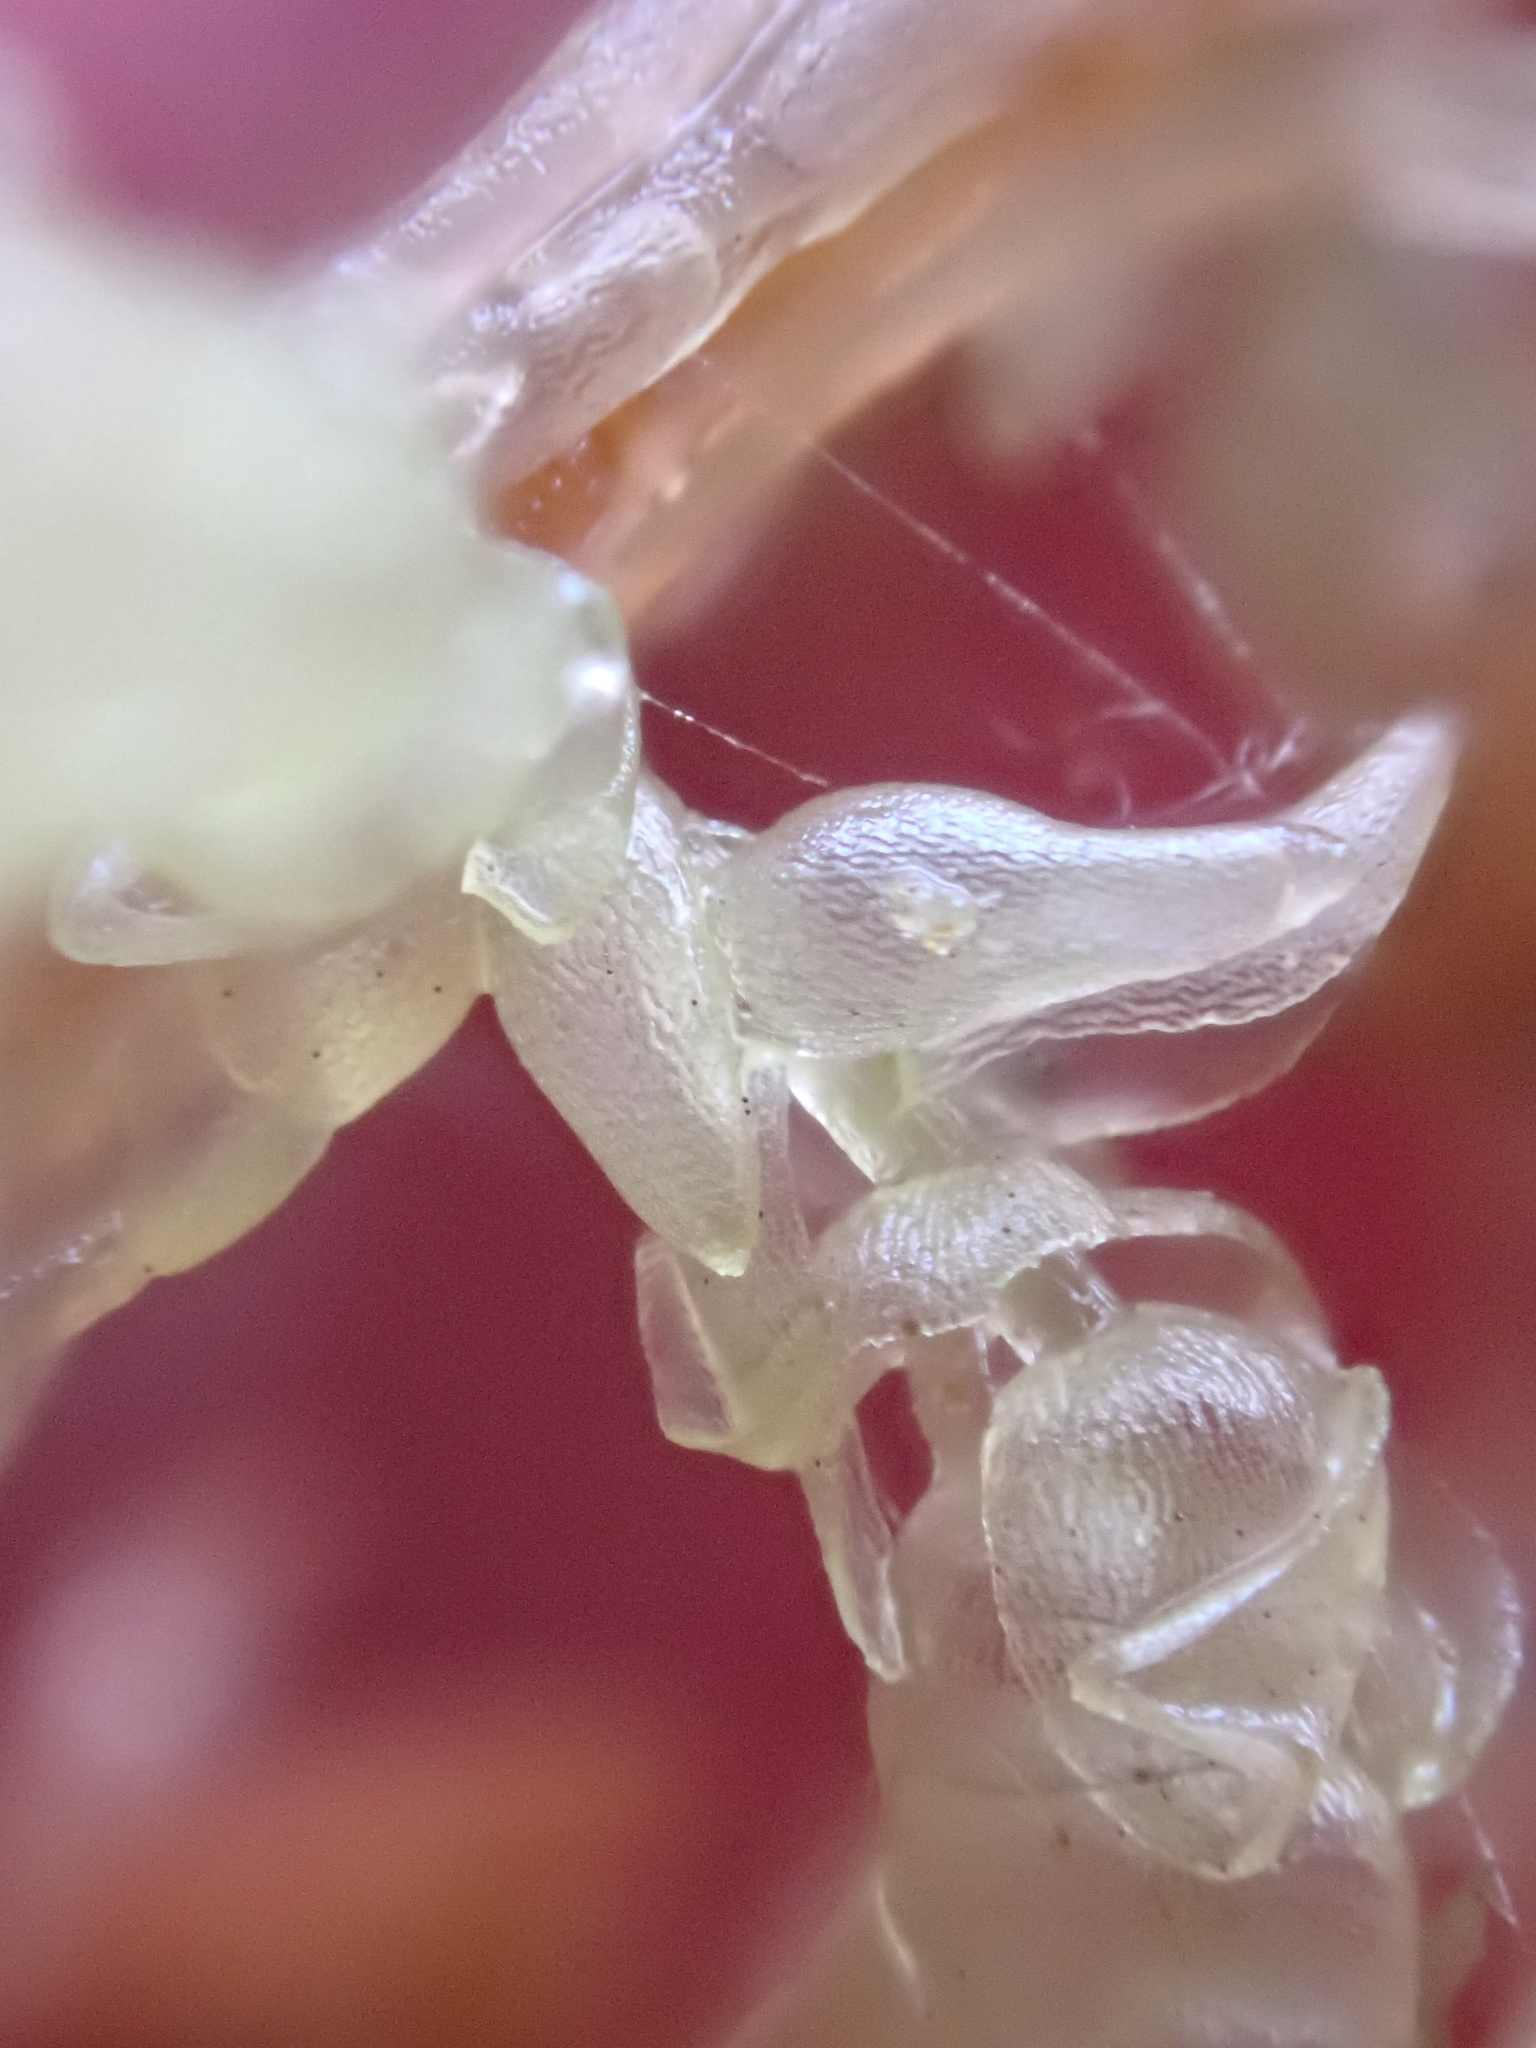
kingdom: Plantae
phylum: Bryophyta
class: Sphagnopsida
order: Sphagnales
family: Sphagnaceae
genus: Sphagnum
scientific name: Sphagnum palustre
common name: Blunt-leaved bog-moss
